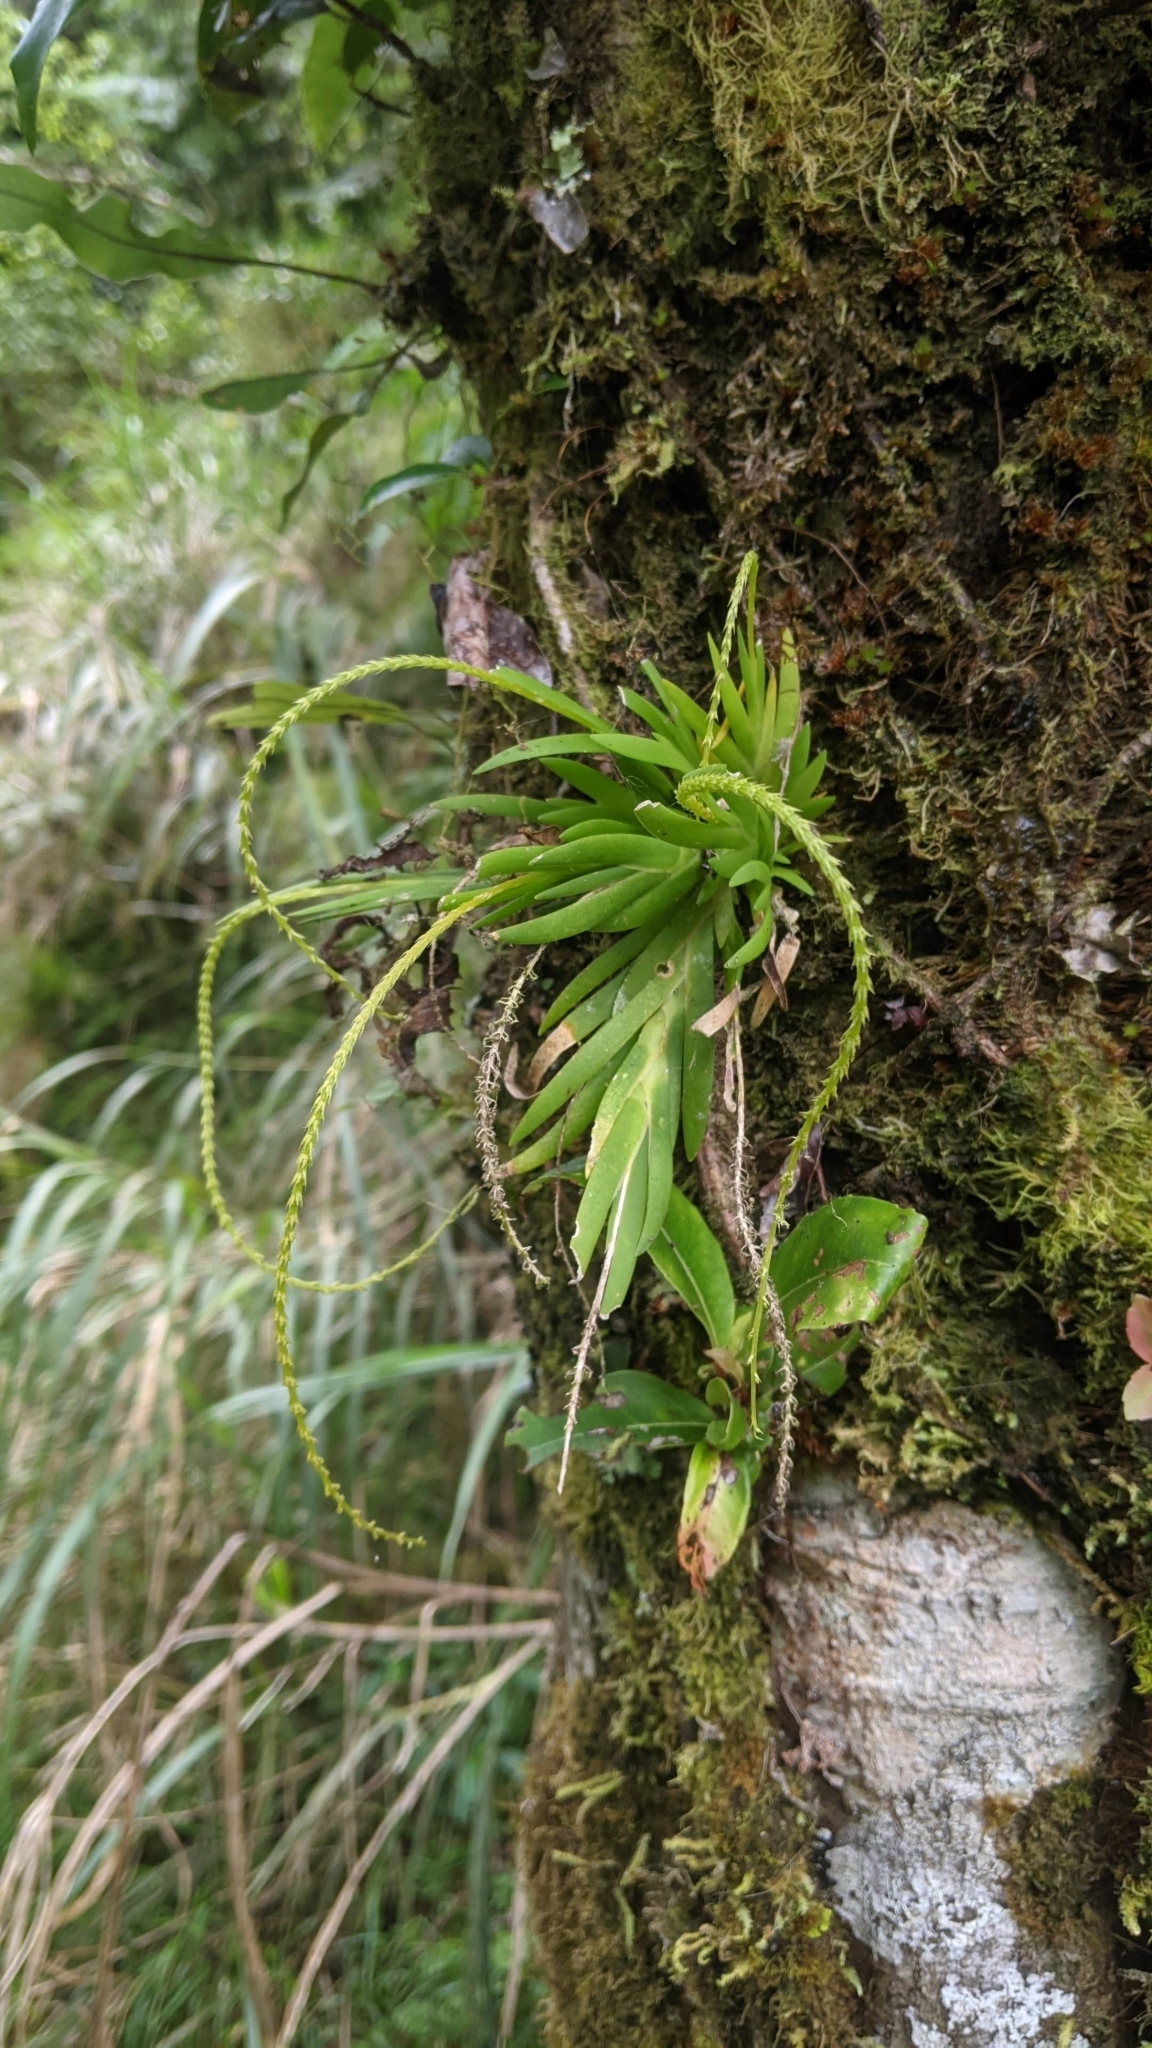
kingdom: Plantae
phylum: Tracheophyta
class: Liliopsida
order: Asparagales
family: Orchidaceae
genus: Oberonia
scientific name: Oberonia caulescens
